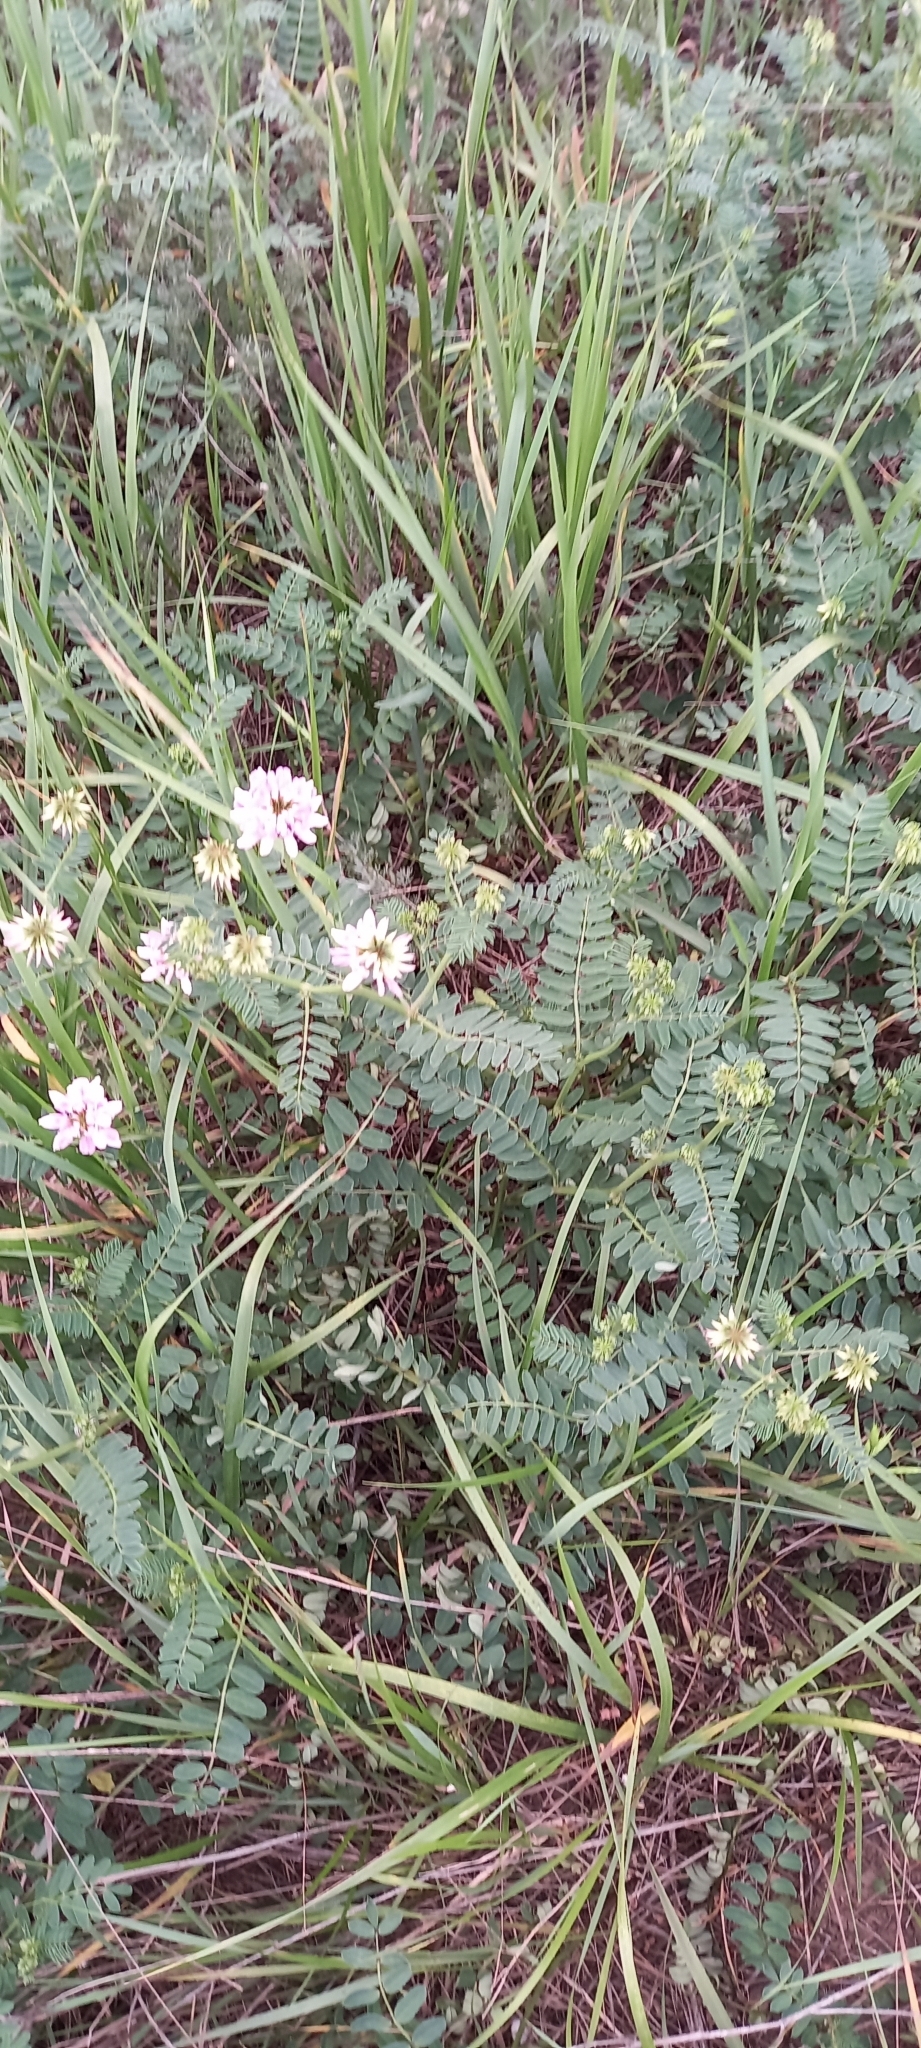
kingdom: Plantae
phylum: Tracheophyta
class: Magnoliopsida
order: Fabales
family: Fabaceae
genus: Coronilla
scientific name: Coronilla varia
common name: Crownvetch
